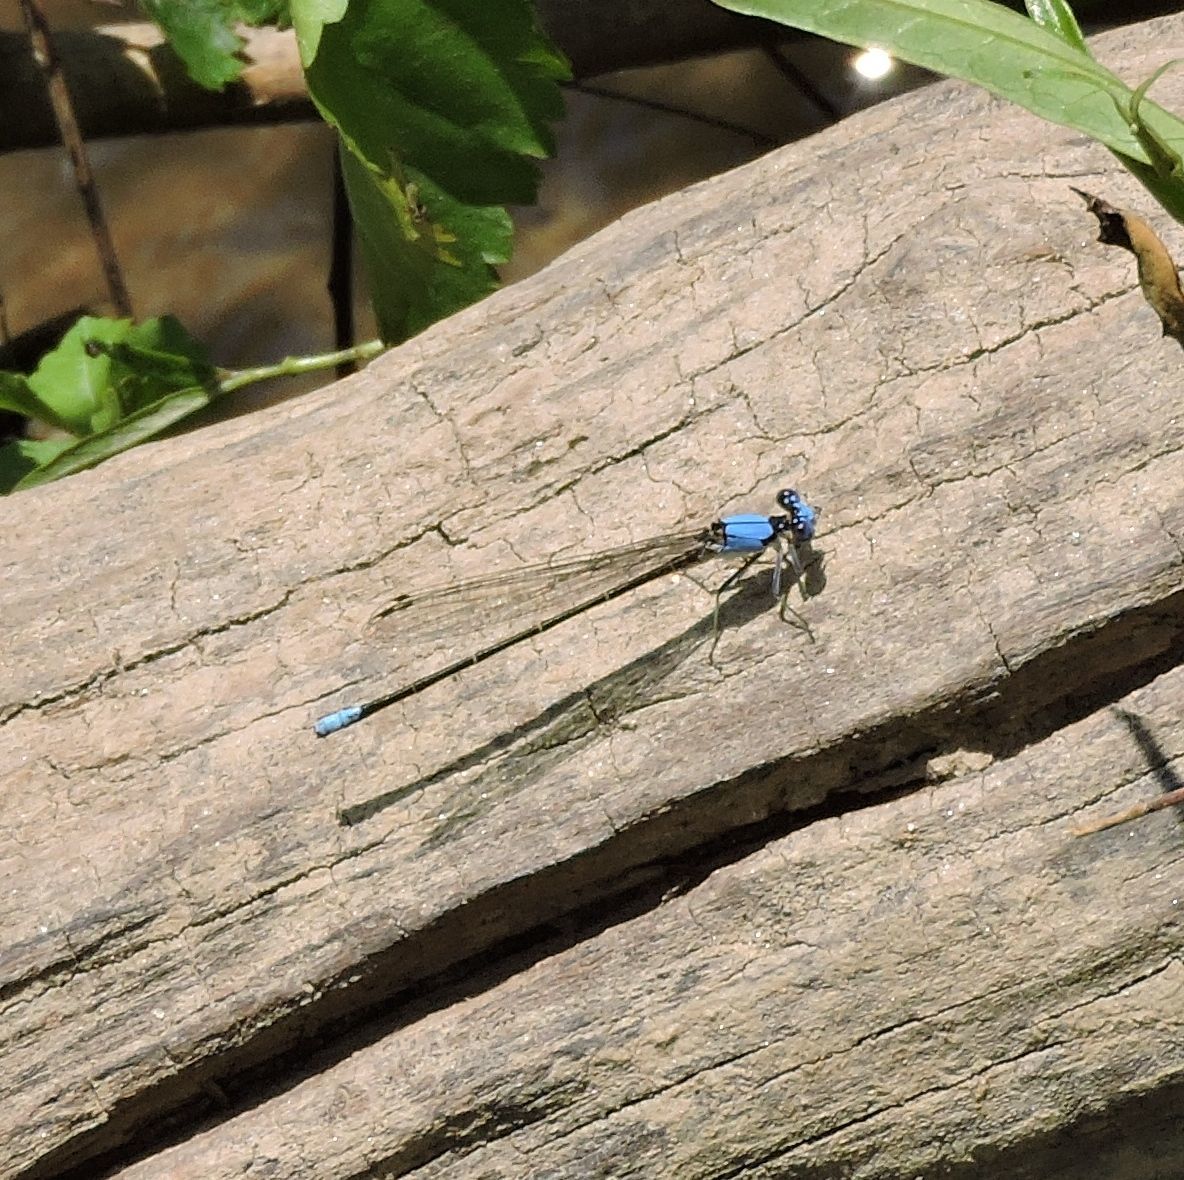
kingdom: Animalia
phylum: Arthropoda
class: Insecta
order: Odonata
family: Coenagrionidae
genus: Argia
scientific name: Argia apicalis
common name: Blue-fronted dancer
